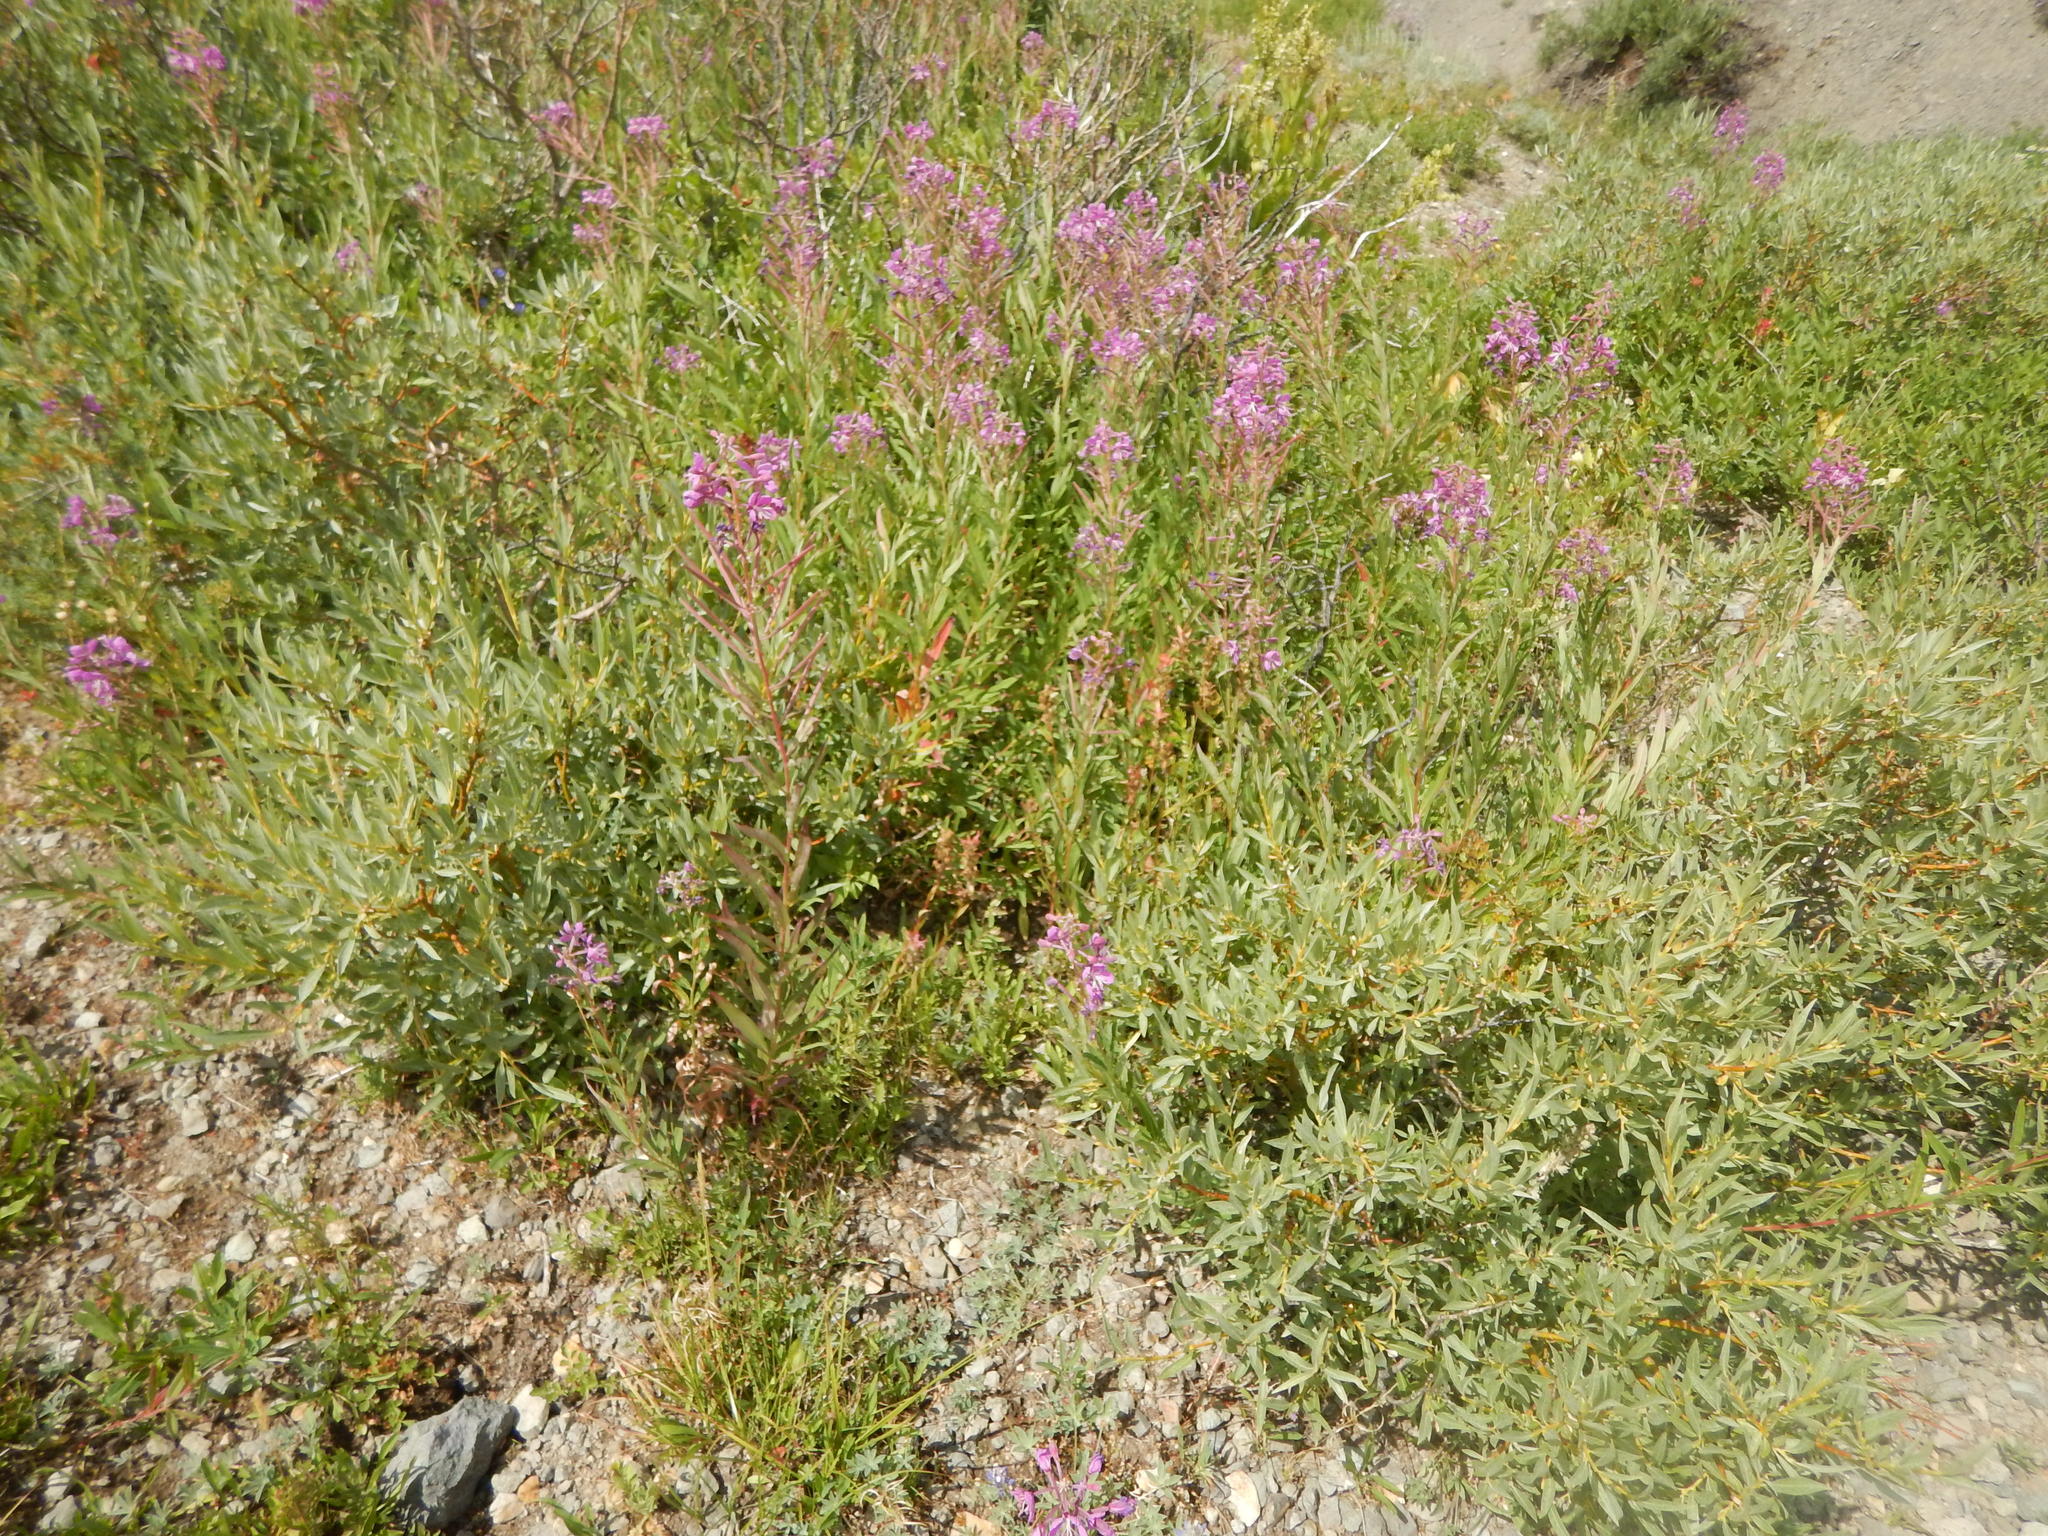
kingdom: Plantae
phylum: Tracheophyta
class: Magnoliopsida
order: Myrtales
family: Onagraceae
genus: Chamaenerion
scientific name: Chamaenerion angustifolium
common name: Fireweed
